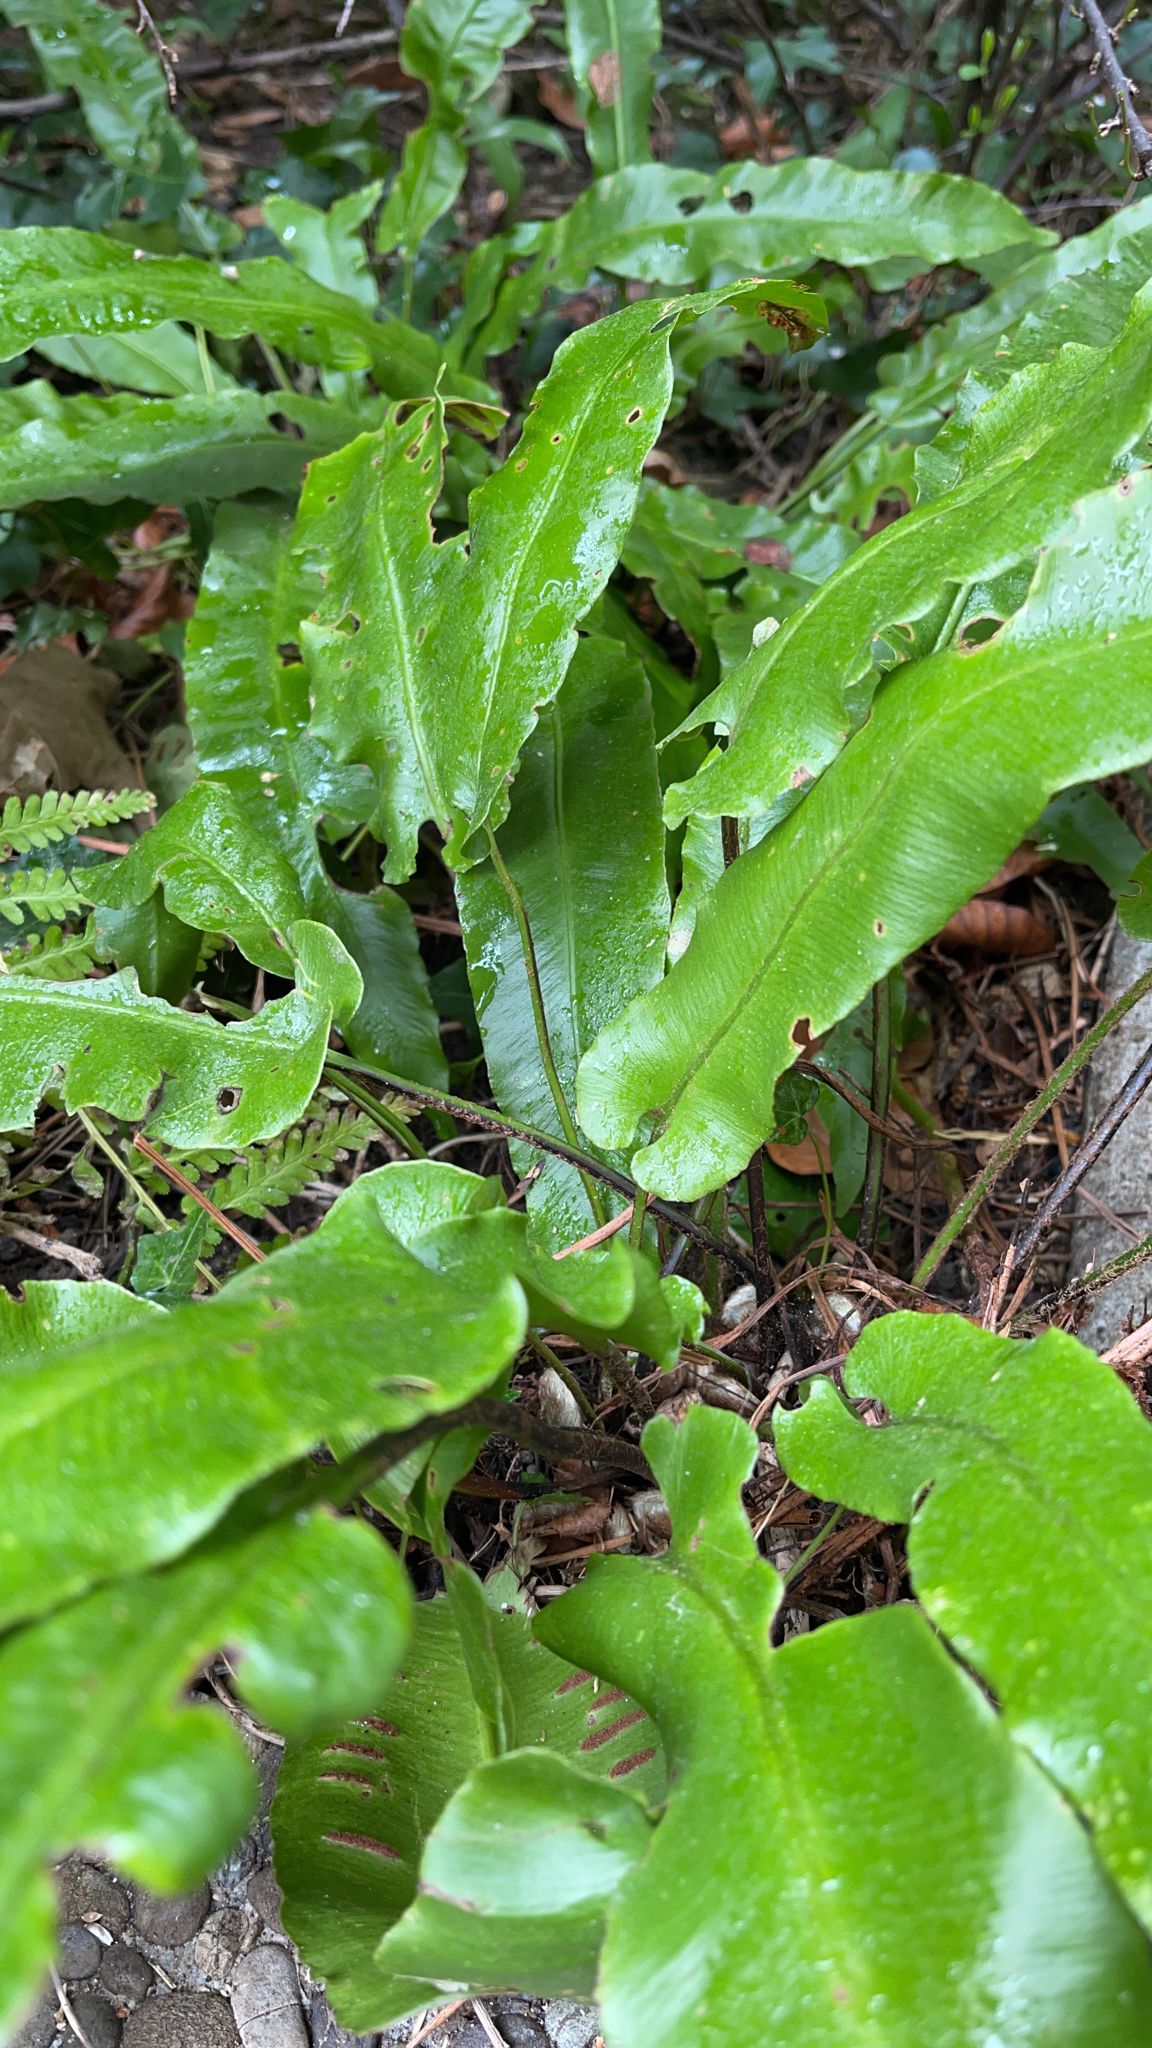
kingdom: Plantae
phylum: Tracheophyta
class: Polypodiopsida
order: Polypodiales
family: Aspleniaceae
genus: Asplenium
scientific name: Asplenium scolopendrium
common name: Hart's-tongue fern
